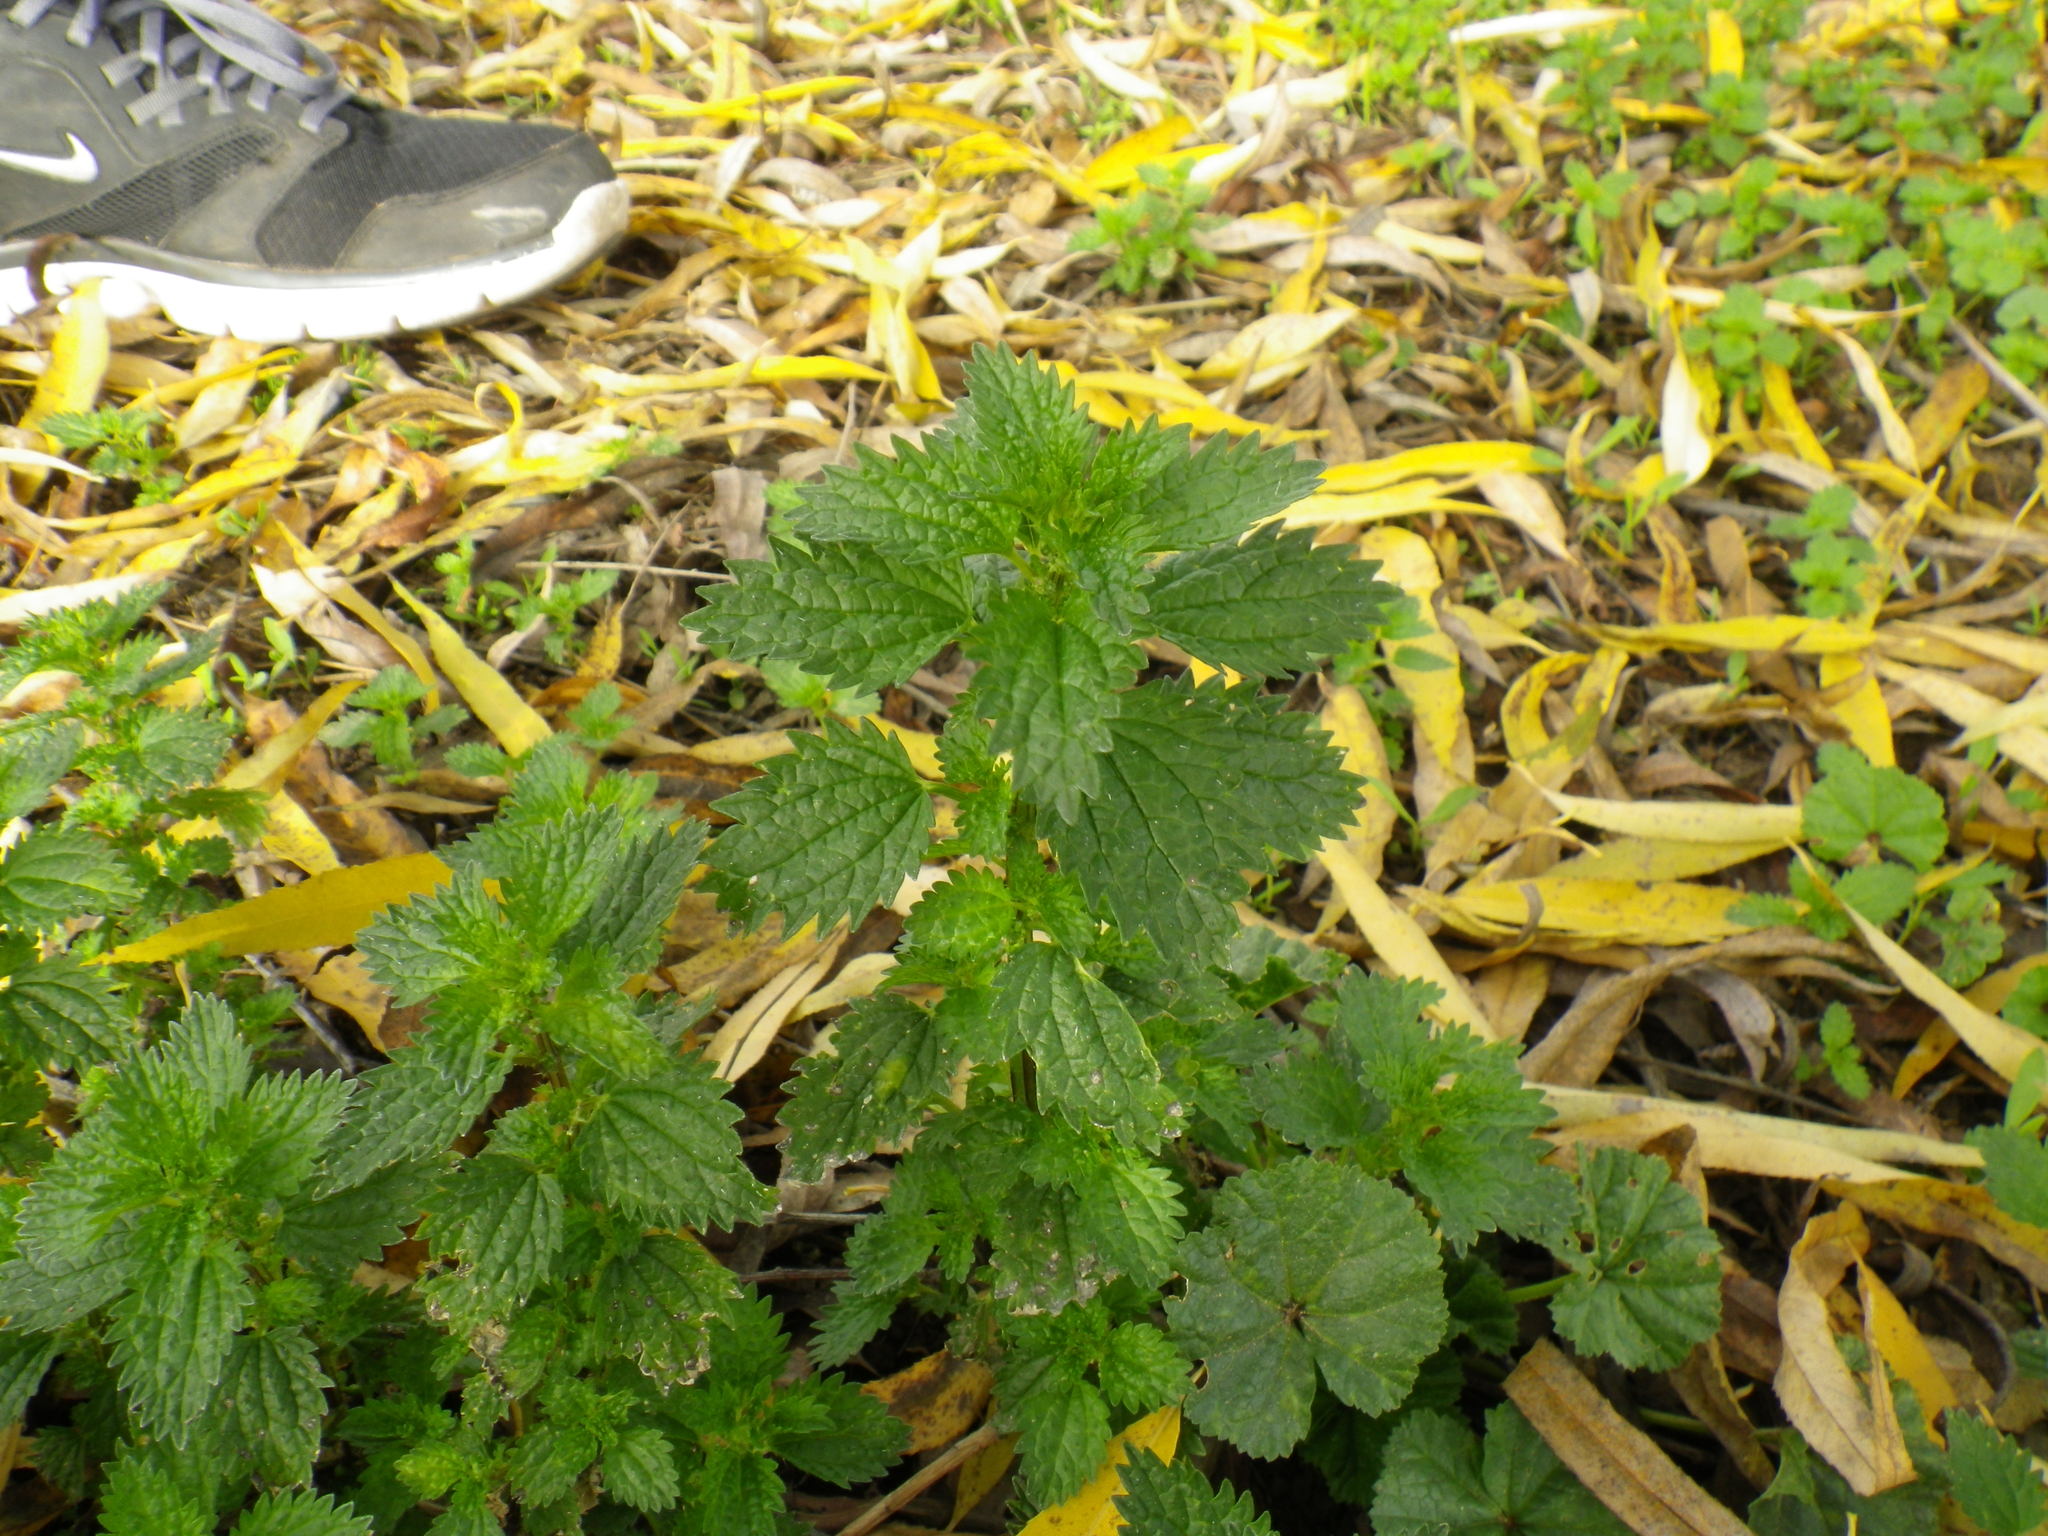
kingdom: Plantae
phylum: Tracheophyta
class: Magnoliopsida
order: Rosales
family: Urticaceae
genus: Urtica
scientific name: Urtica urens
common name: Dwarf nettle
